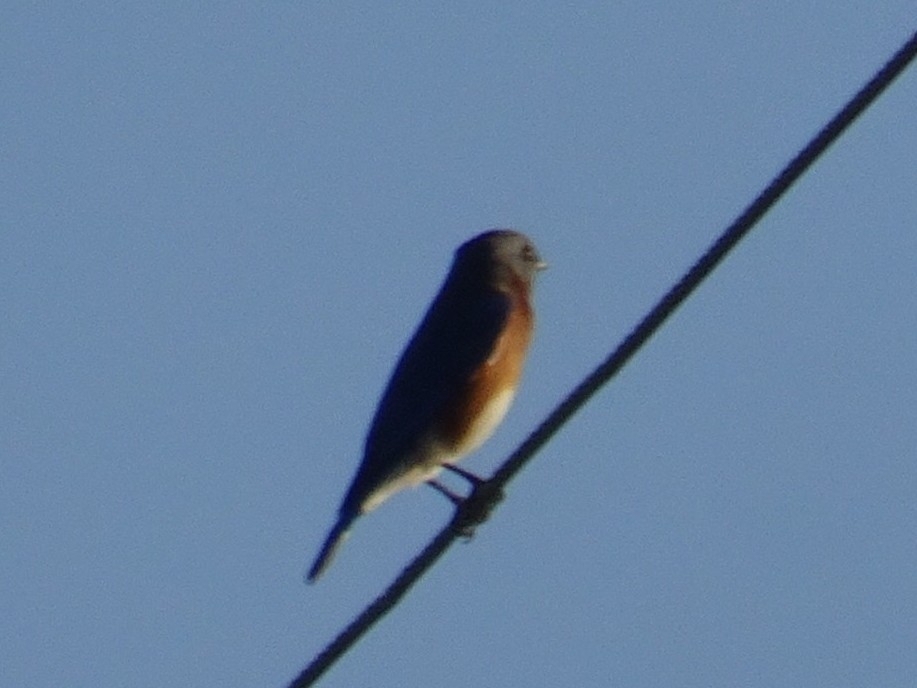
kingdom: Animalia
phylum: Chordata
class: Aves
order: Passeriformes
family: Turdidae
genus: Sialia
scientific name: Sialia sialis
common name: Eastern bluebird
